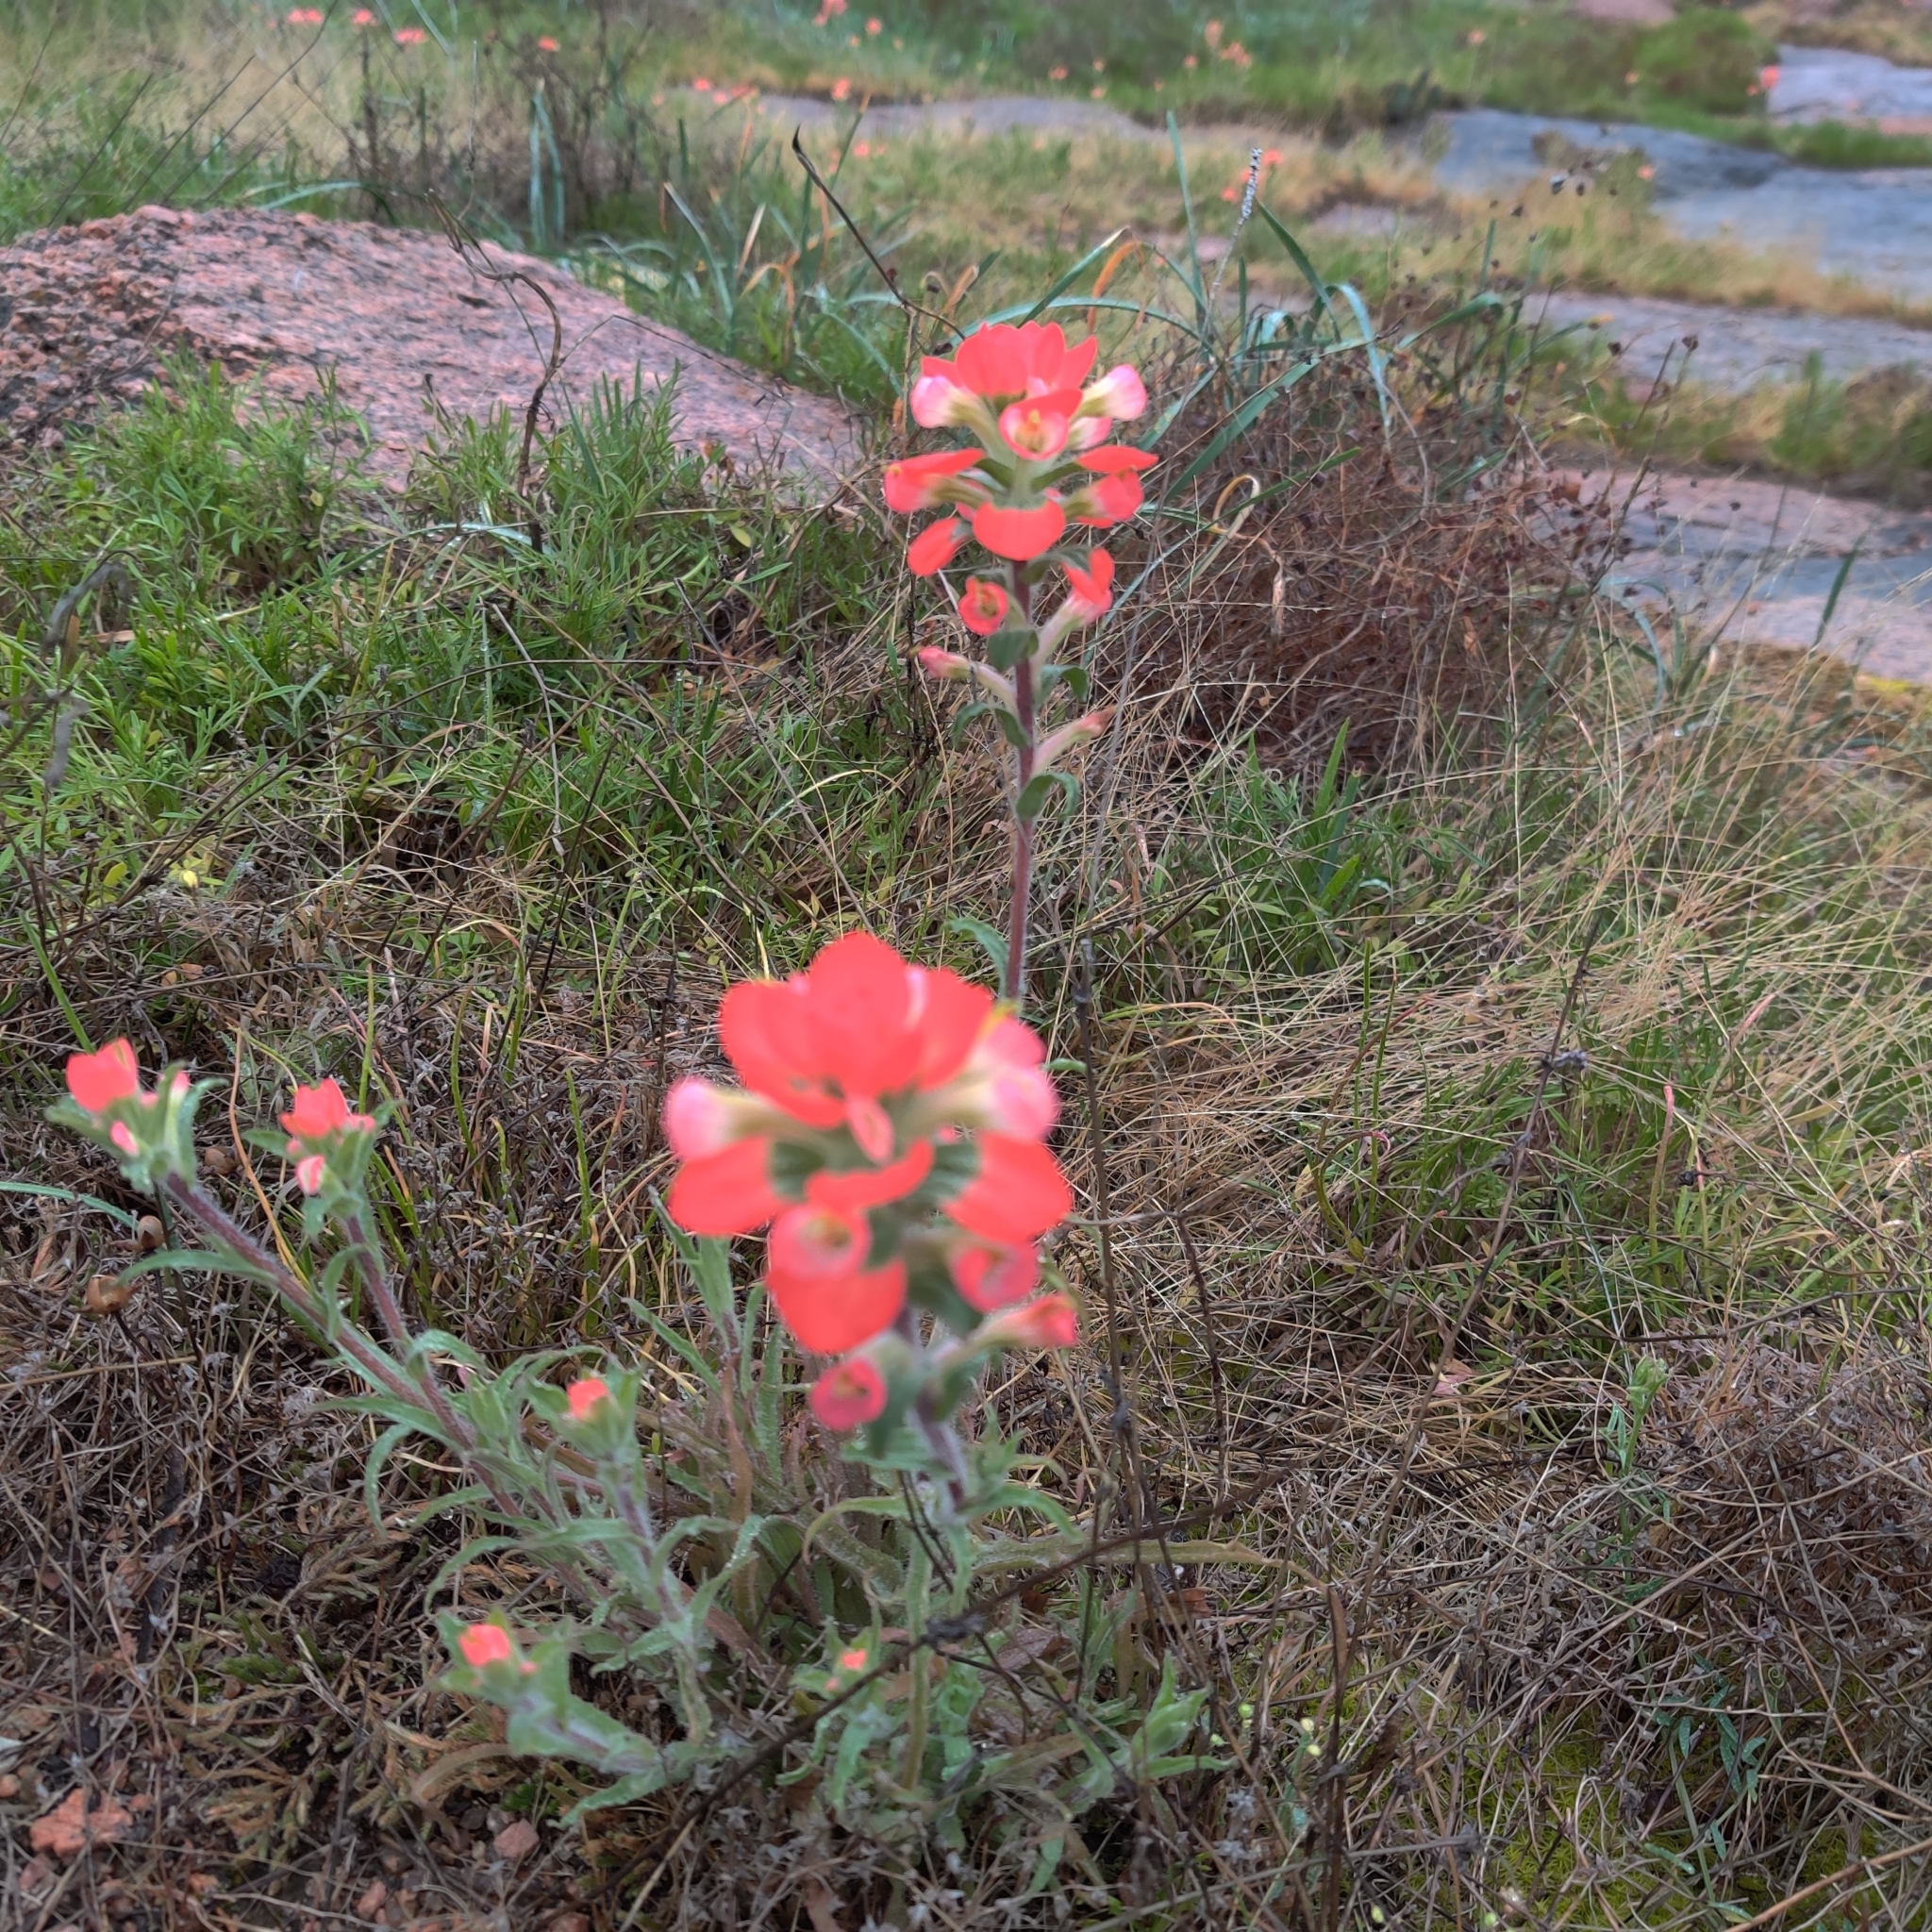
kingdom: Plantae
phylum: Tracheophyta
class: Magnoliopsida
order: Lamiales
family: Orobanchaceae
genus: Castilleja
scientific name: Castilleja indivisa
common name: Texas paintbrush
